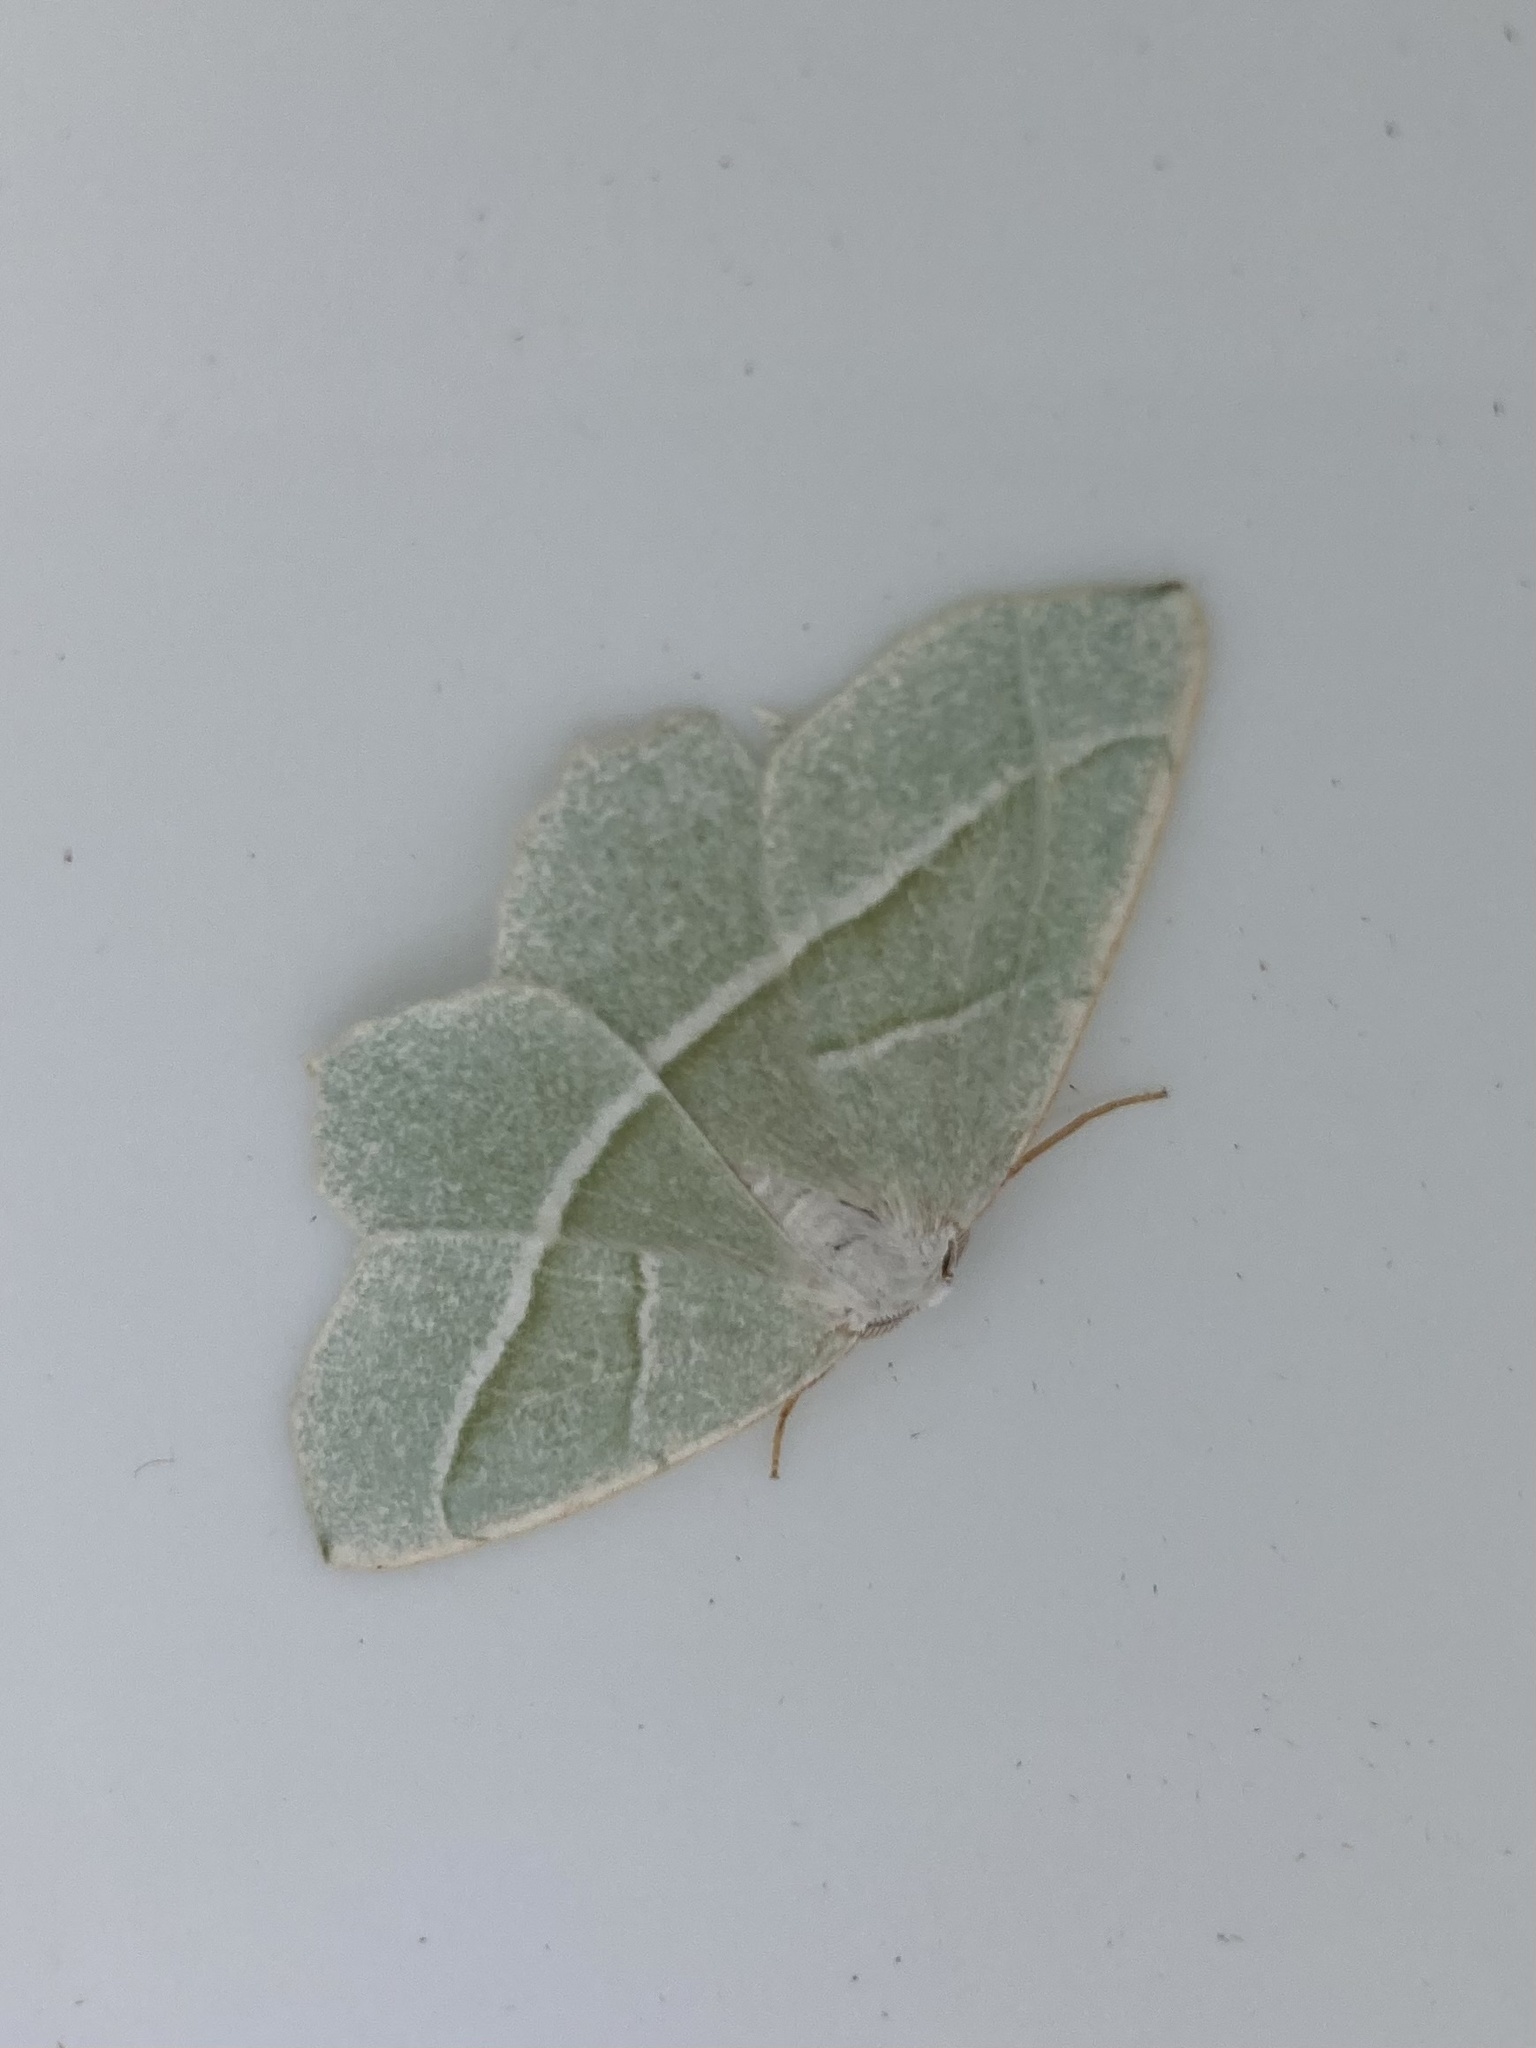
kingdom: Animalia
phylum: Arthropoda
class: Insecta
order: Lepidoptera
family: Geometridae
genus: Campaea
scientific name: Campaea margaritaria
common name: Light emerald
